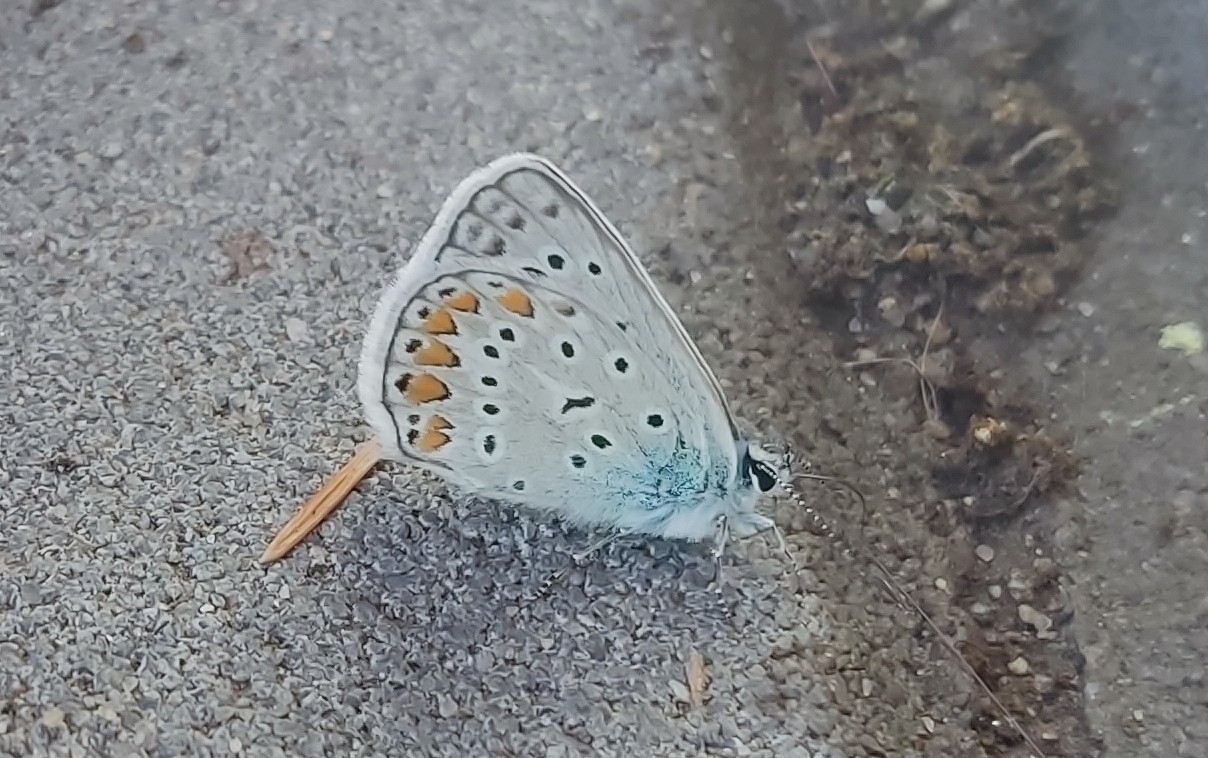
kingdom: Animalia
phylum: Arthropoda
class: Insecta
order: Lepidoptera
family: Lycaenidae
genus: Polyommatus
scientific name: Polyommatus icarus
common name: Common blue
